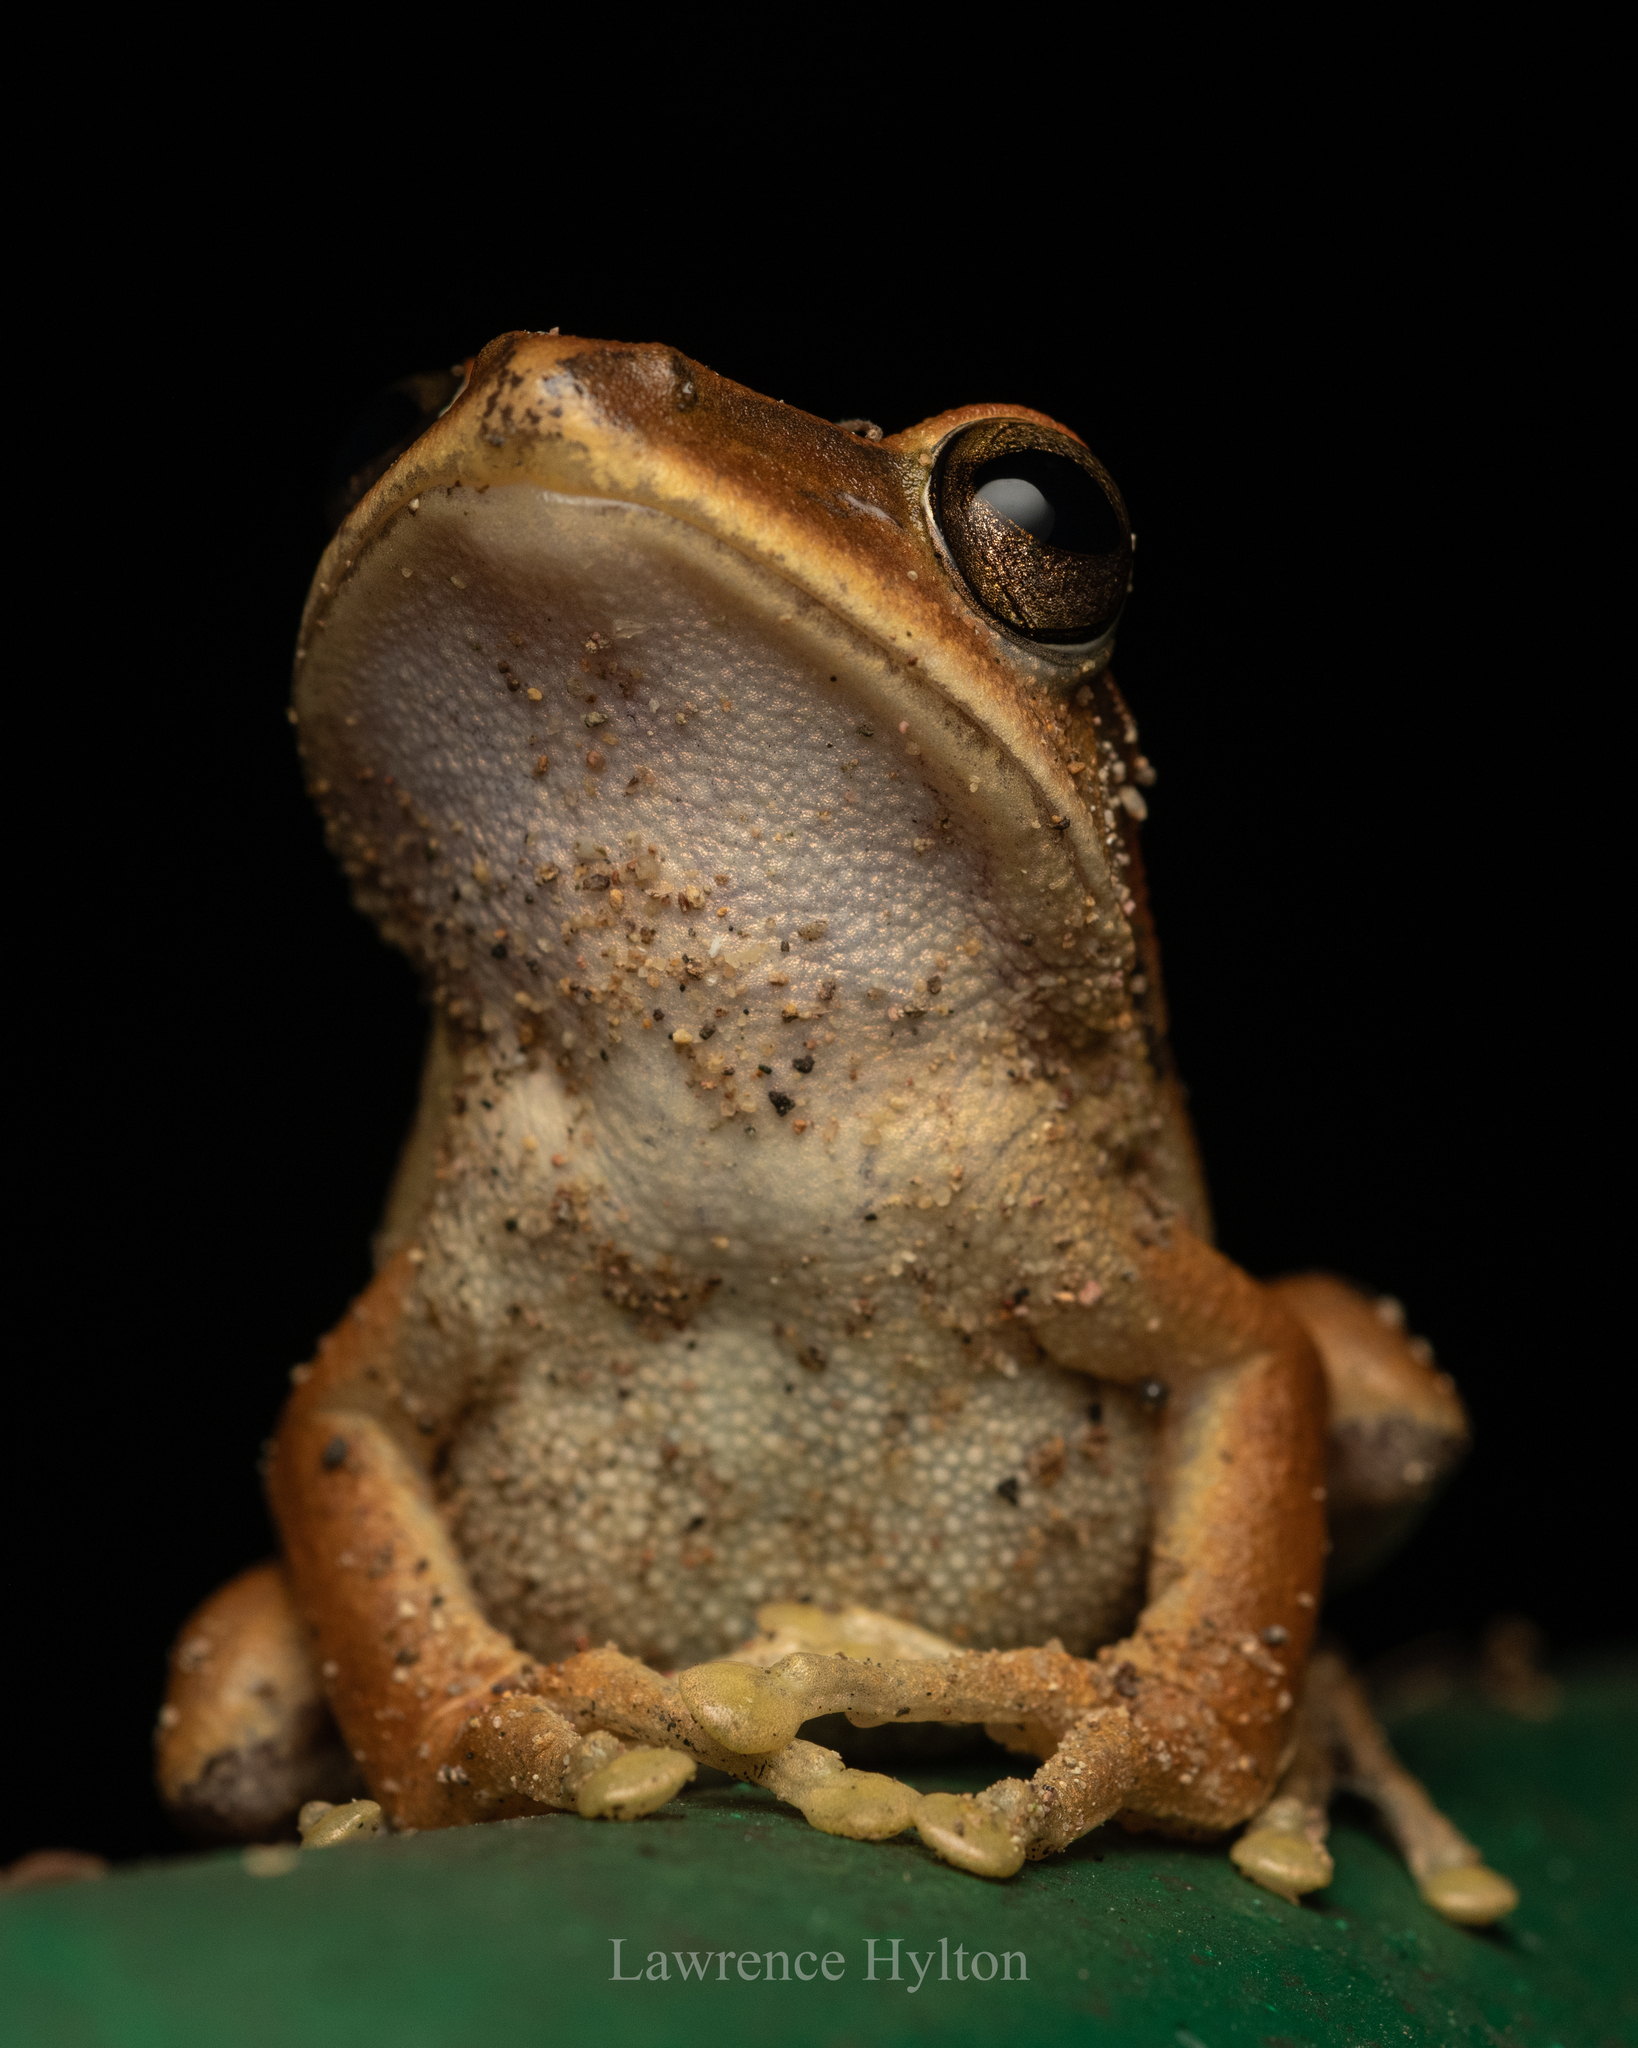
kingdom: Animalia
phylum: Chordata
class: Amphibia
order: Anura
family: Rhacophoridae
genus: Polypedates
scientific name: Polypedates megacephalus
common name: Hong kong whipping frog
